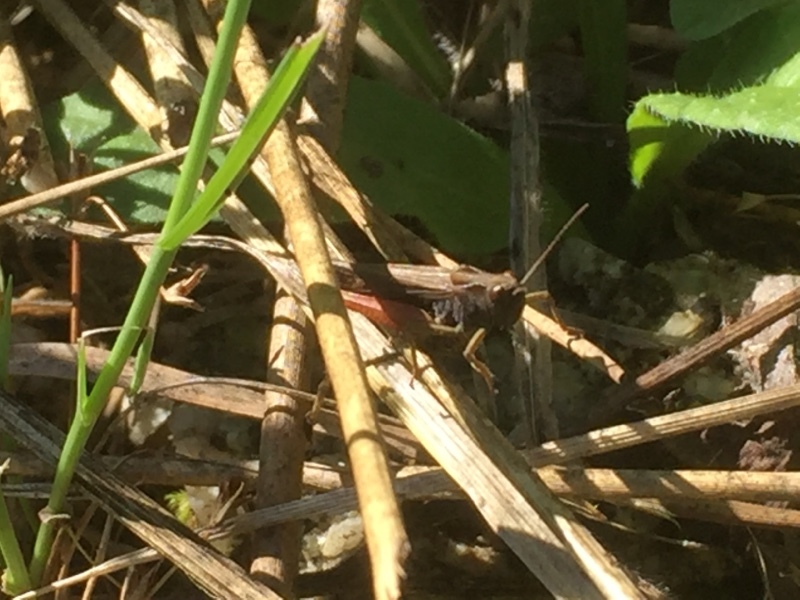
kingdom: Animalia
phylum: Arthropoda
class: Insecta
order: Orthoptera
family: Acrididae
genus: Omocestus
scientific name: Omocestus rufipes
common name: Woodland grasshopper
